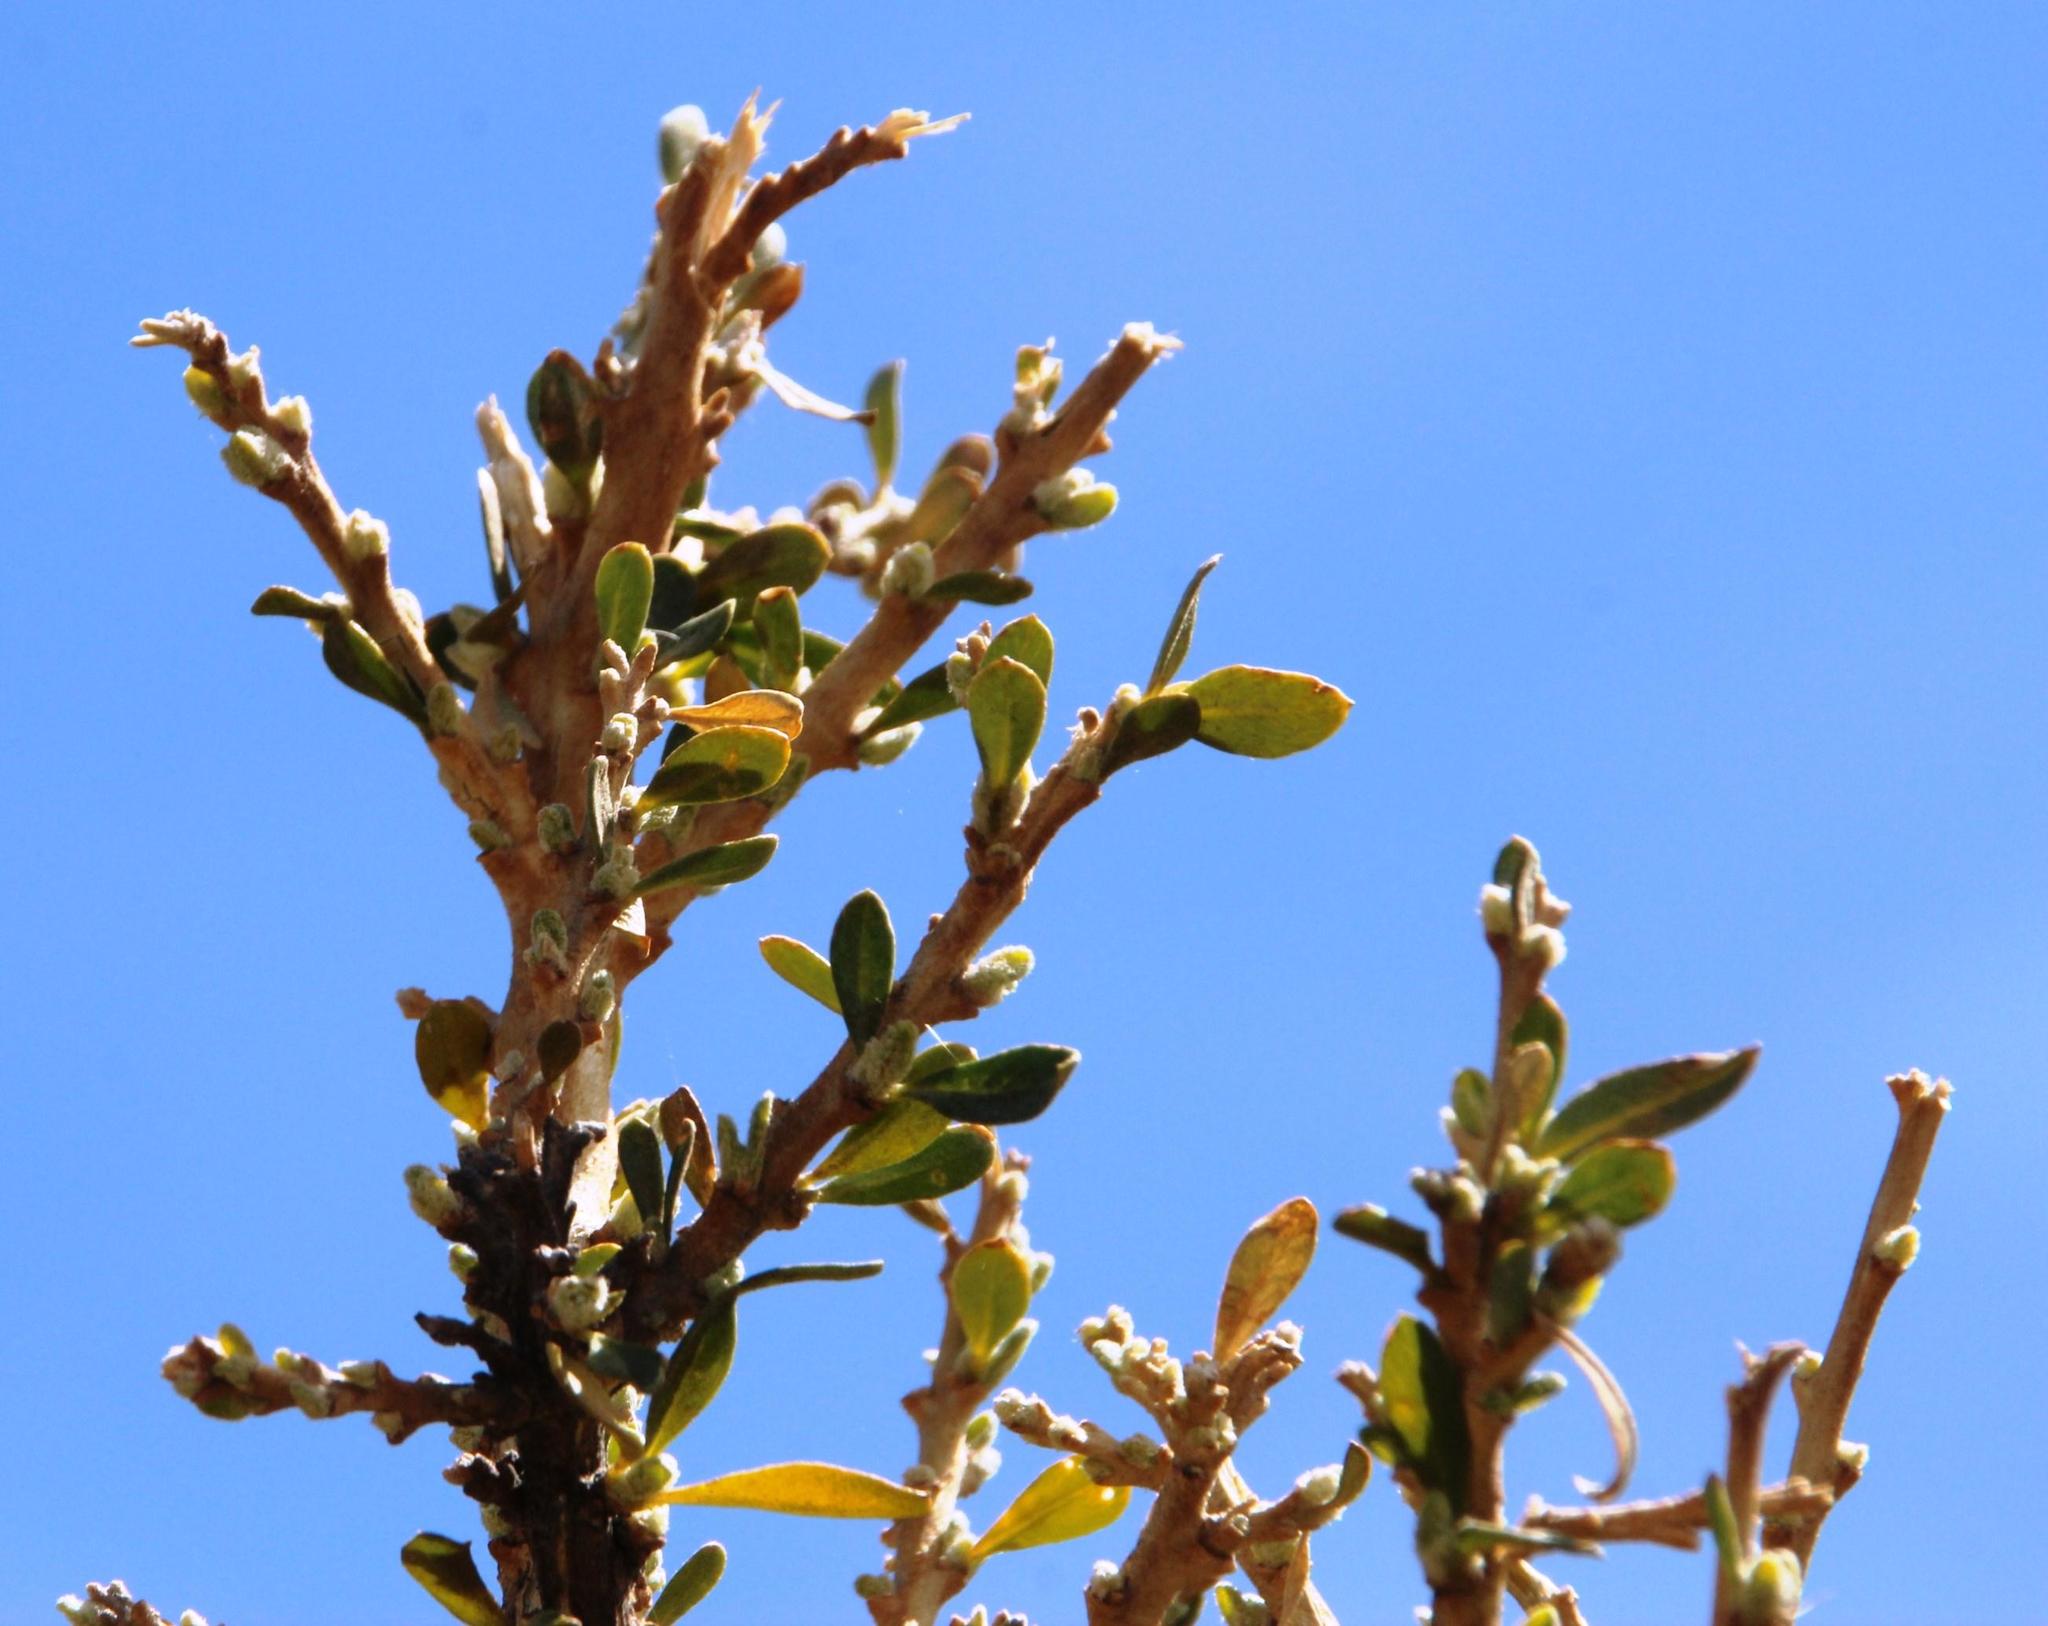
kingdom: Plantae
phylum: Tracheophyta
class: Magnoliopsida
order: Ericales
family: Polemoniaceae
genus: Cantua
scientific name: Cantua buxifolia
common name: Sacred-flower-of-the-incas
